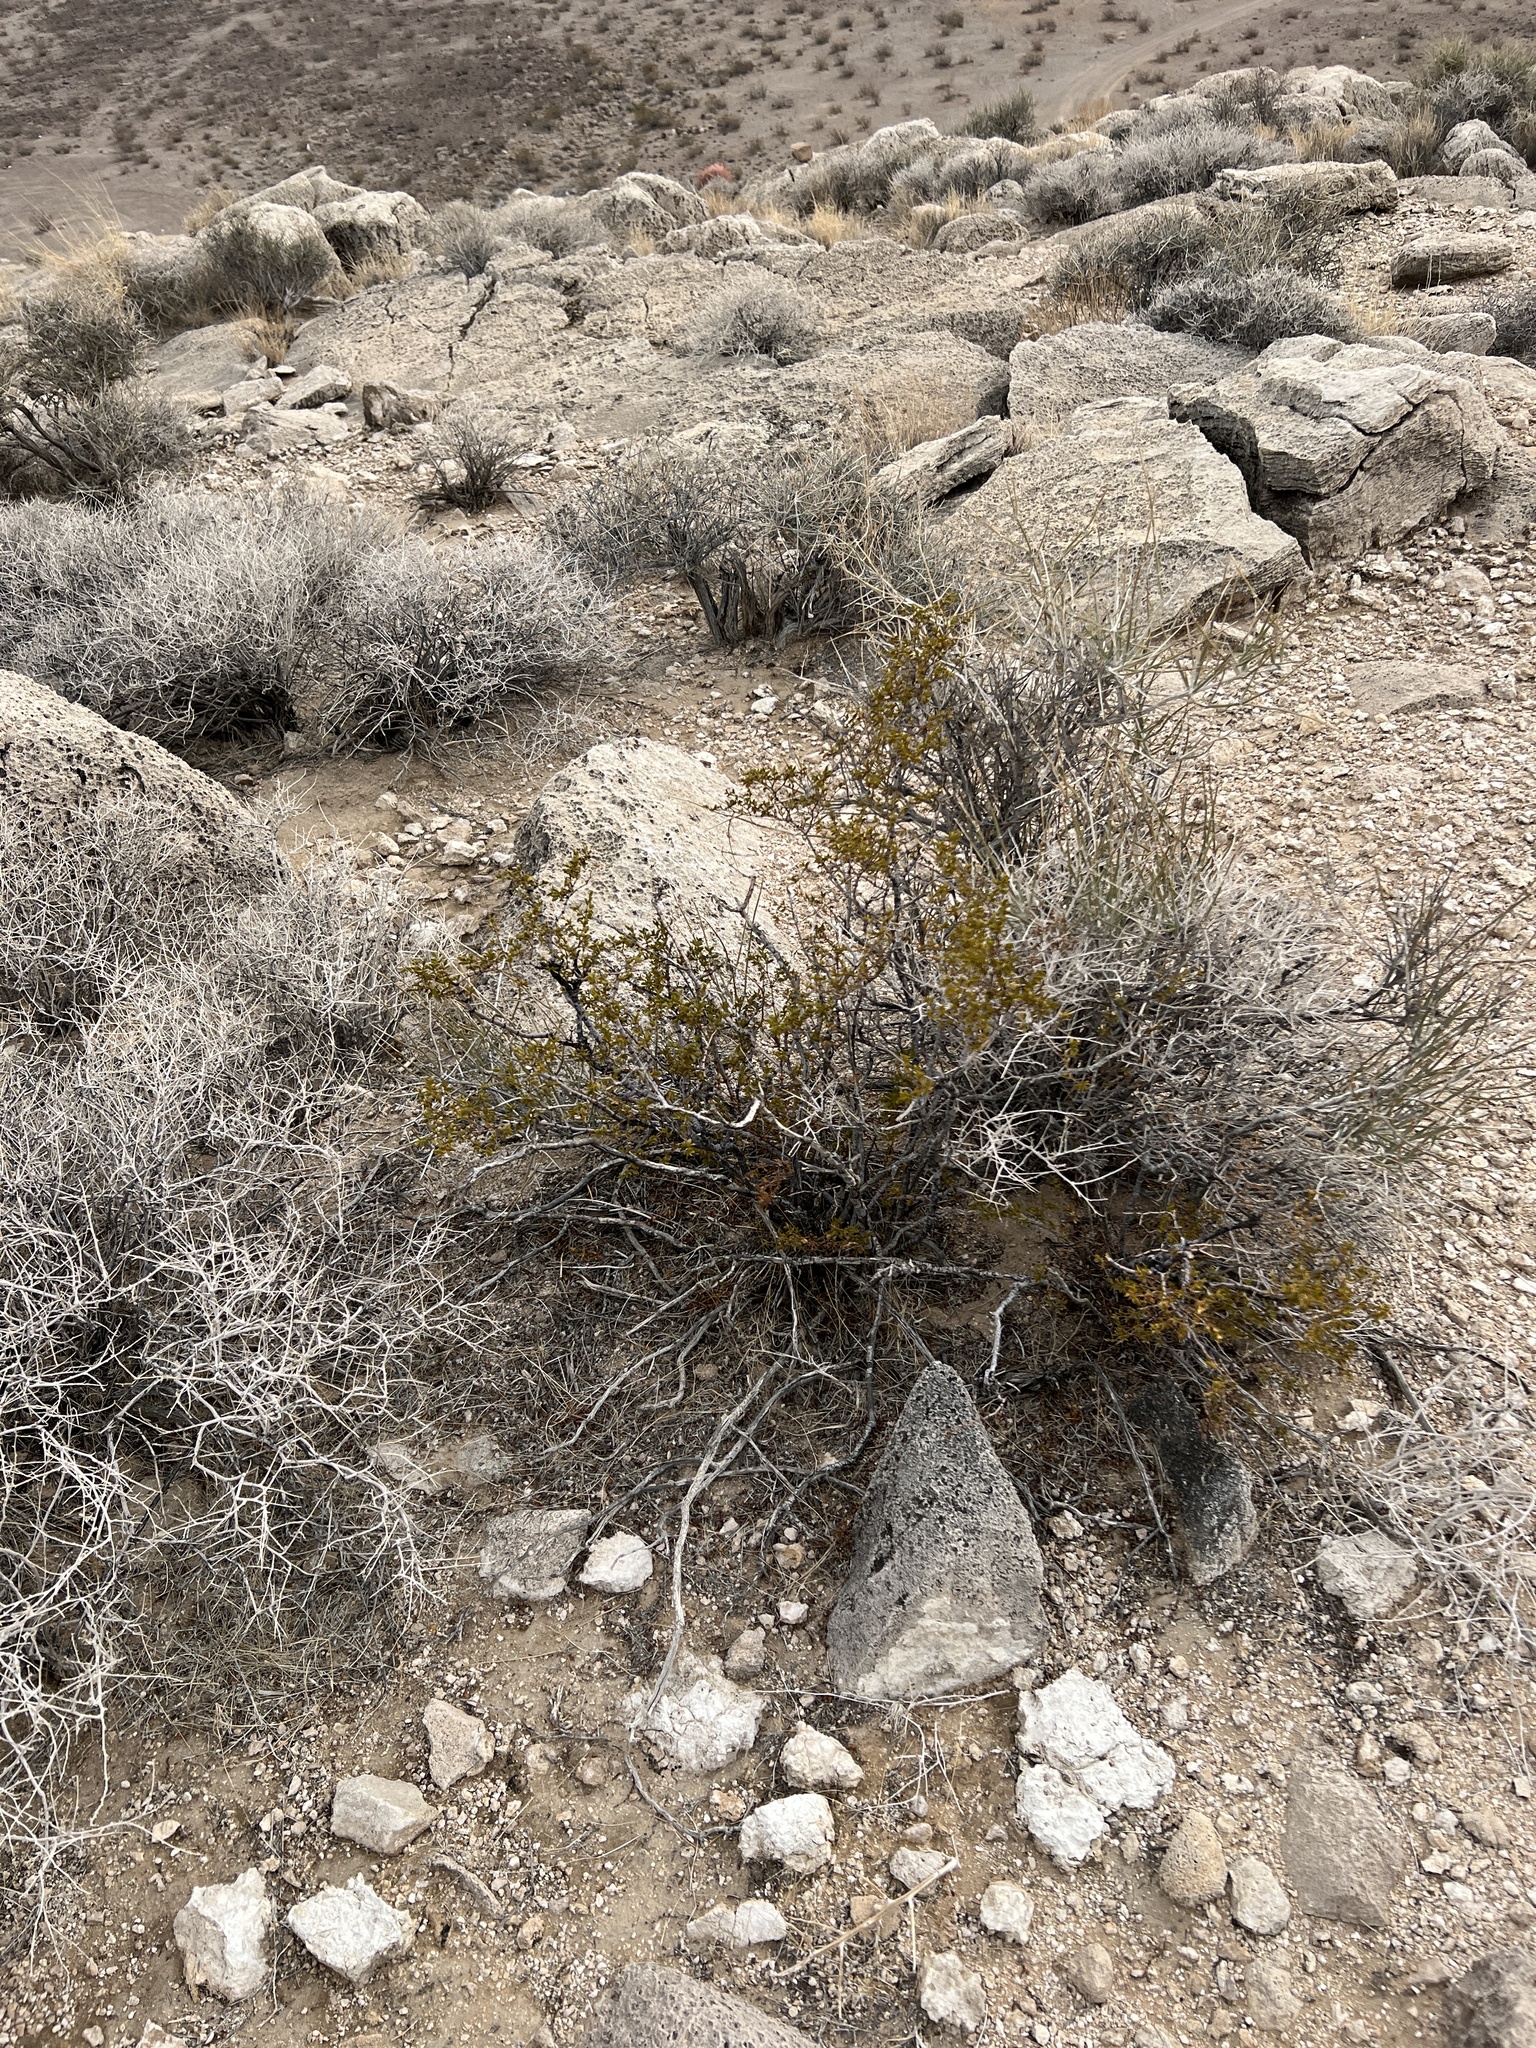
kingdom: Plantae
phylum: Tracheophyta
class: Magnoliopsida
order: Zygophyllales
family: Zygophyllaceae
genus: Larrea
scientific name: Larrea tridentata
